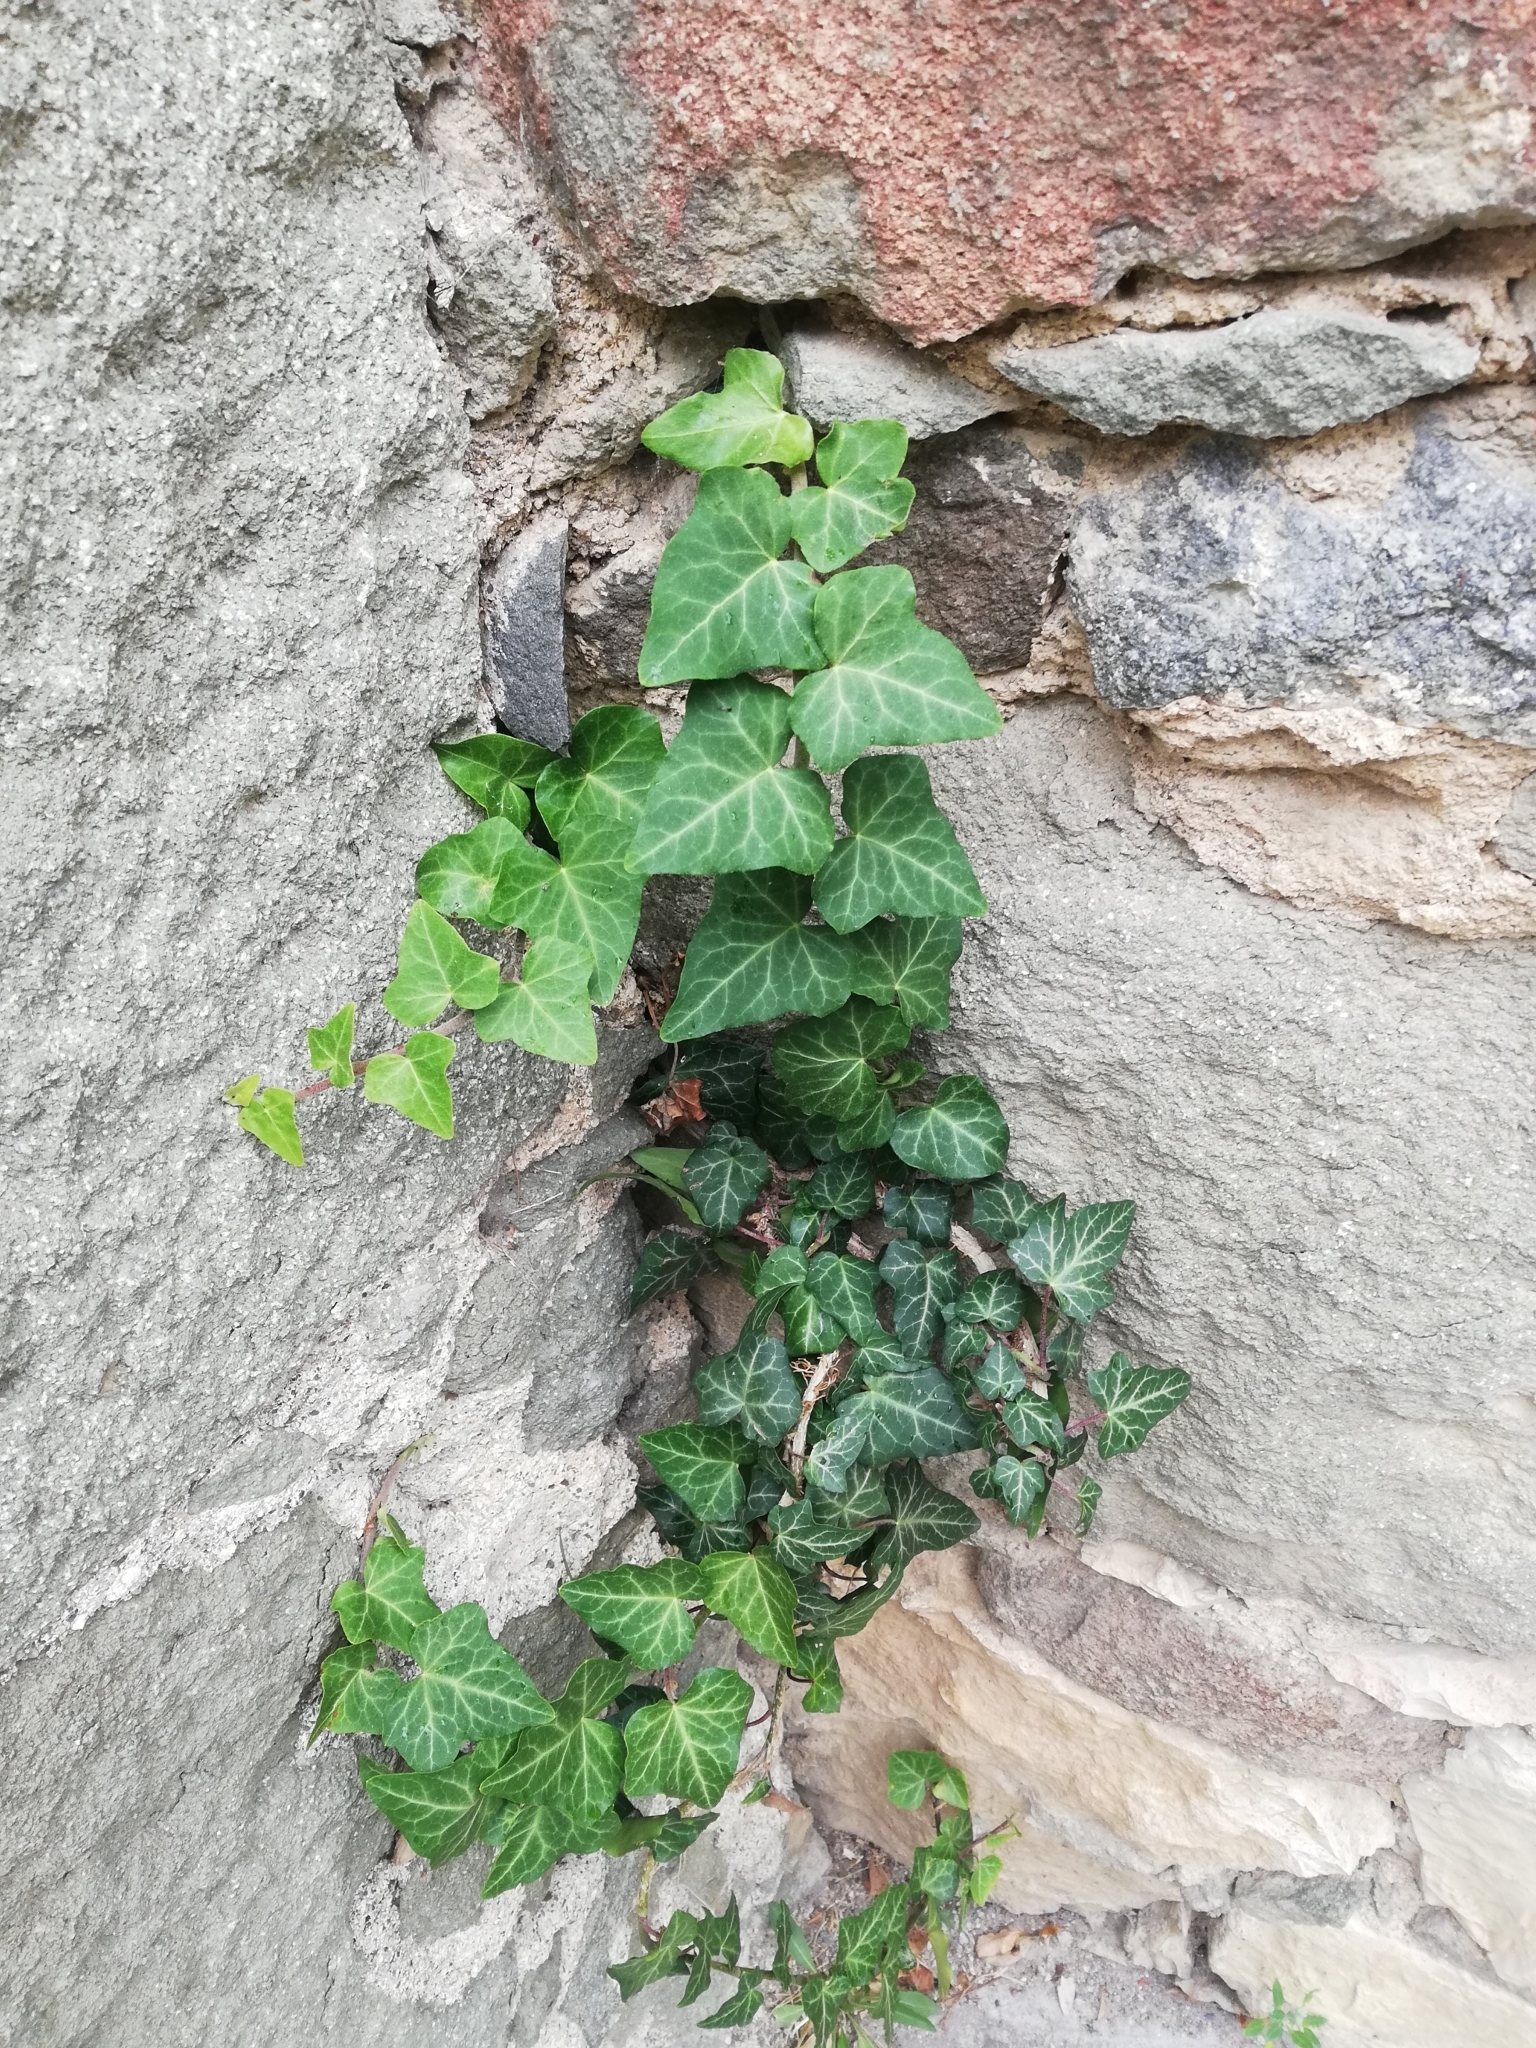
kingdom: Plantae
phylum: Tracheophyta
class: Magnoliopsida
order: Apiales
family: Araliaceae
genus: Hedera
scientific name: Hedera helix
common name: Ivy
